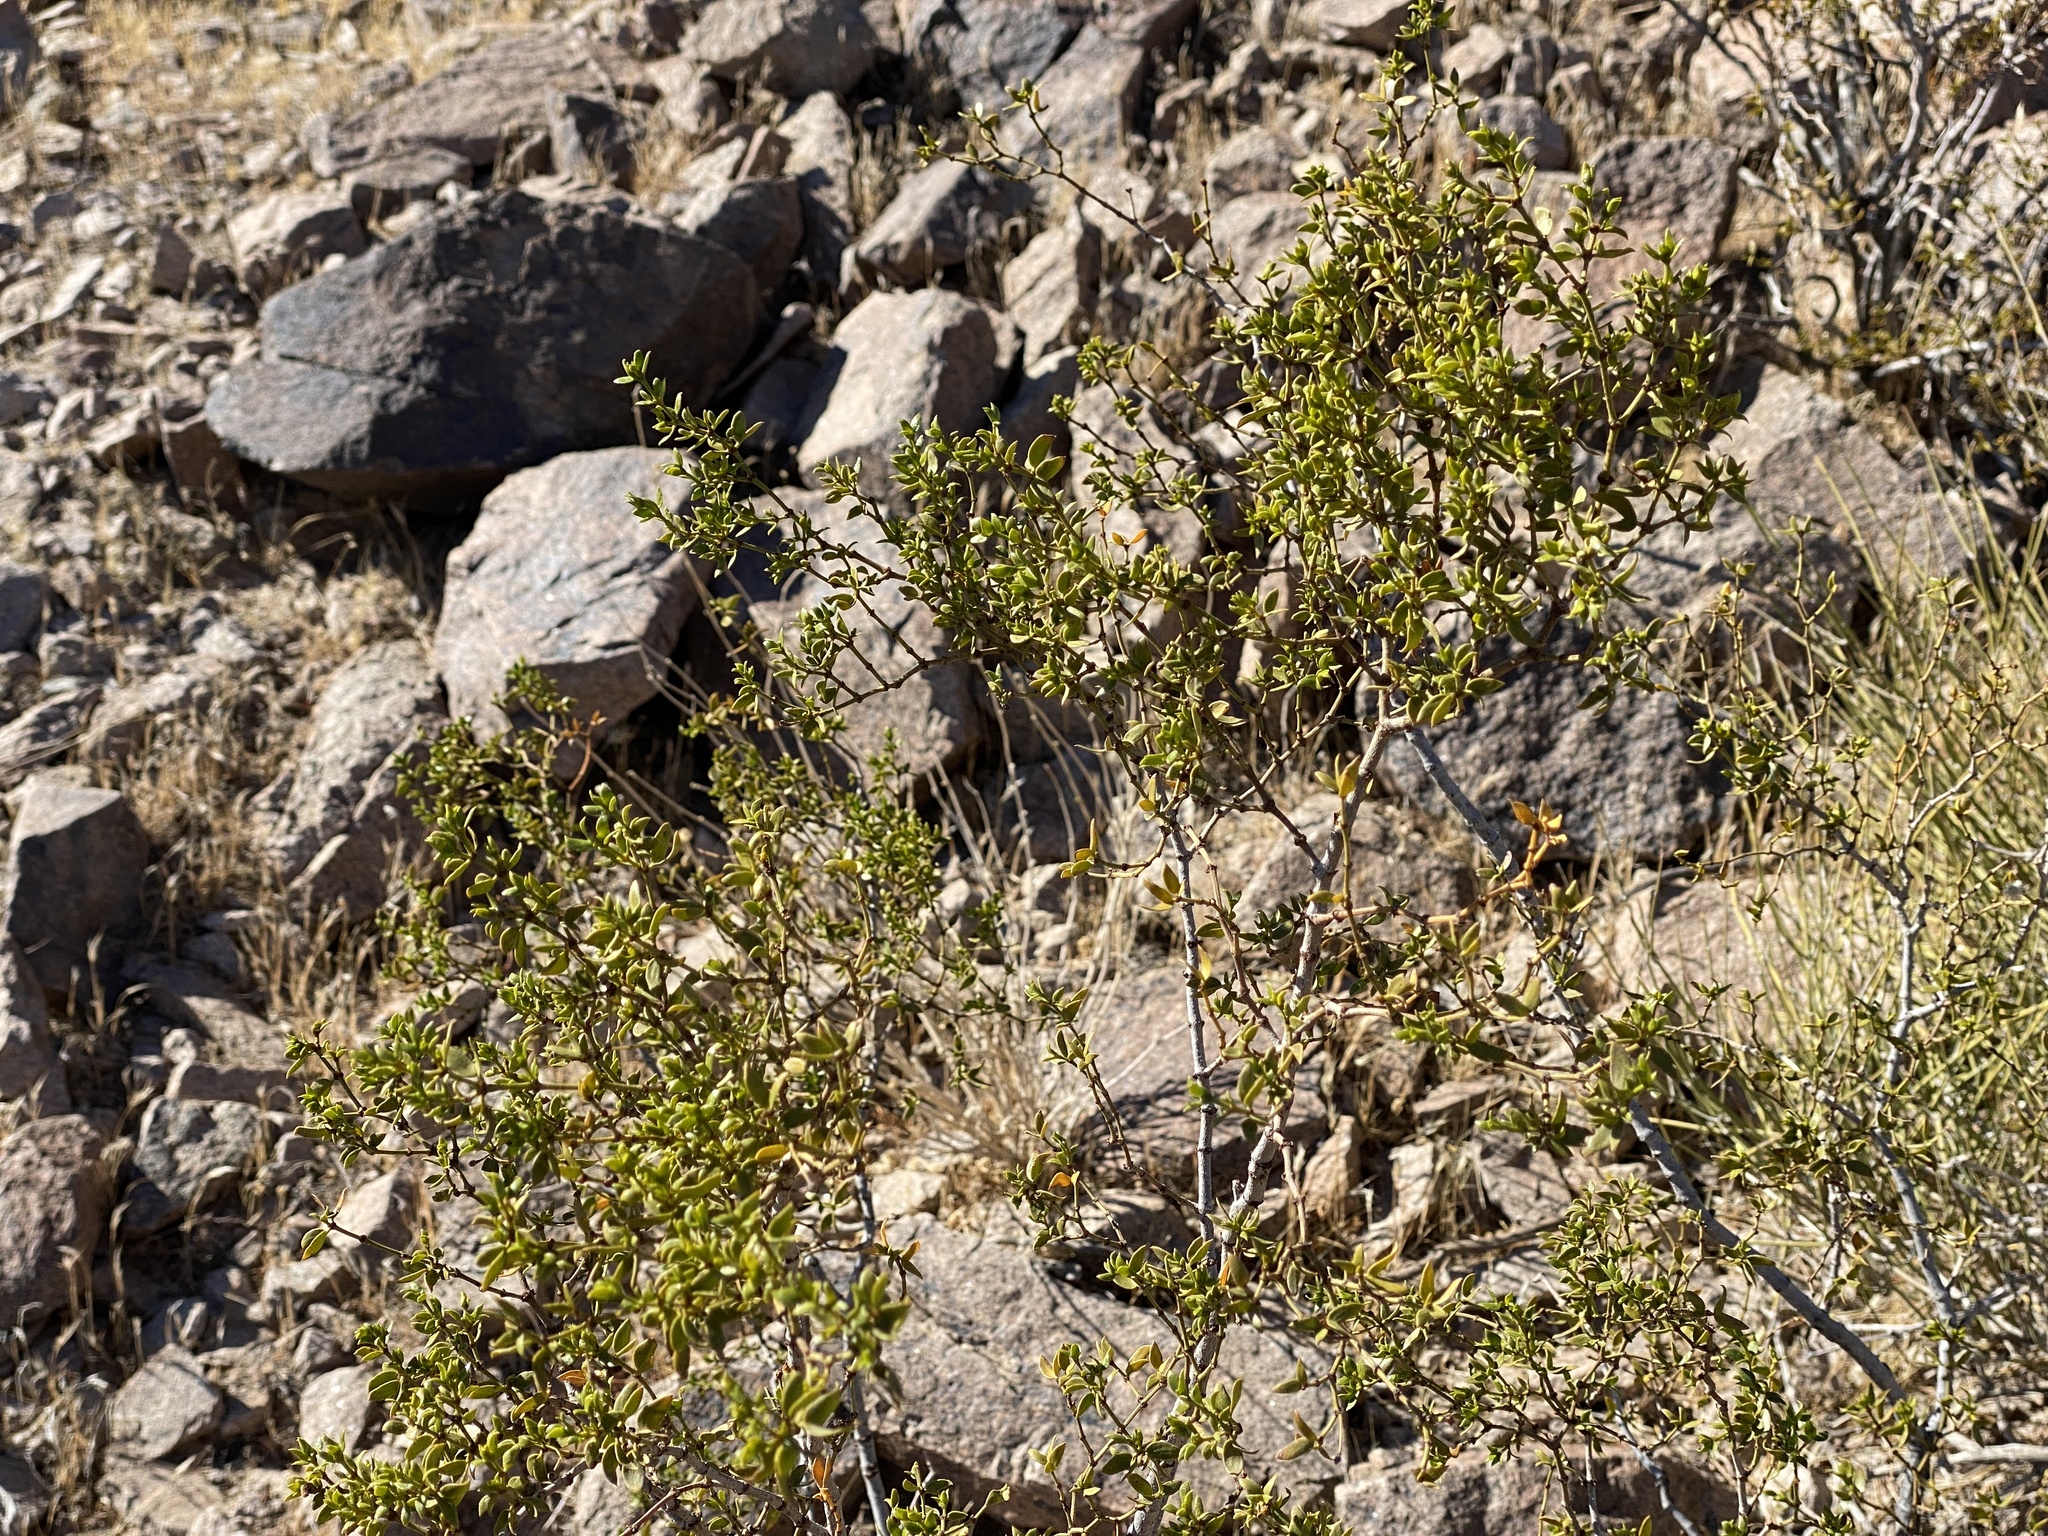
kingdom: Plantae
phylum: Tracheophyta
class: Magnoliopsida
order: Zygophyllales
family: Zygophyllaceae
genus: Larrea
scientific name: Larrea tridentata
